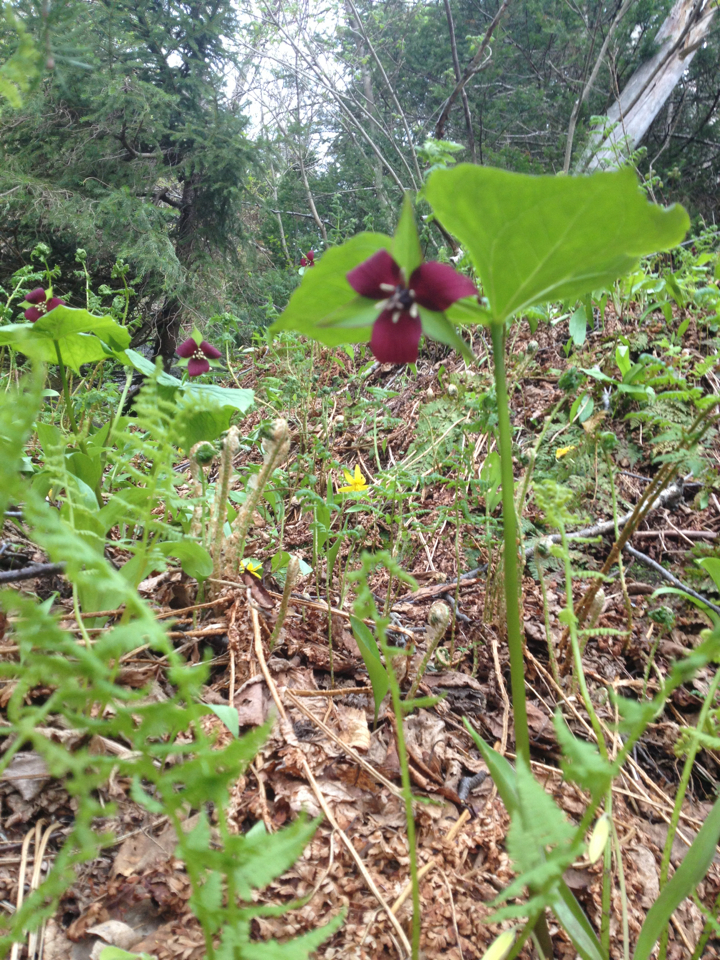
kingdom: Plantae
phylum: Tracheophyta
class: Liliopsida
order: Liliales
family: Melanthiaceae
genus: Trillium
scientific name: Trillium erectum
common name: Purple trillium
